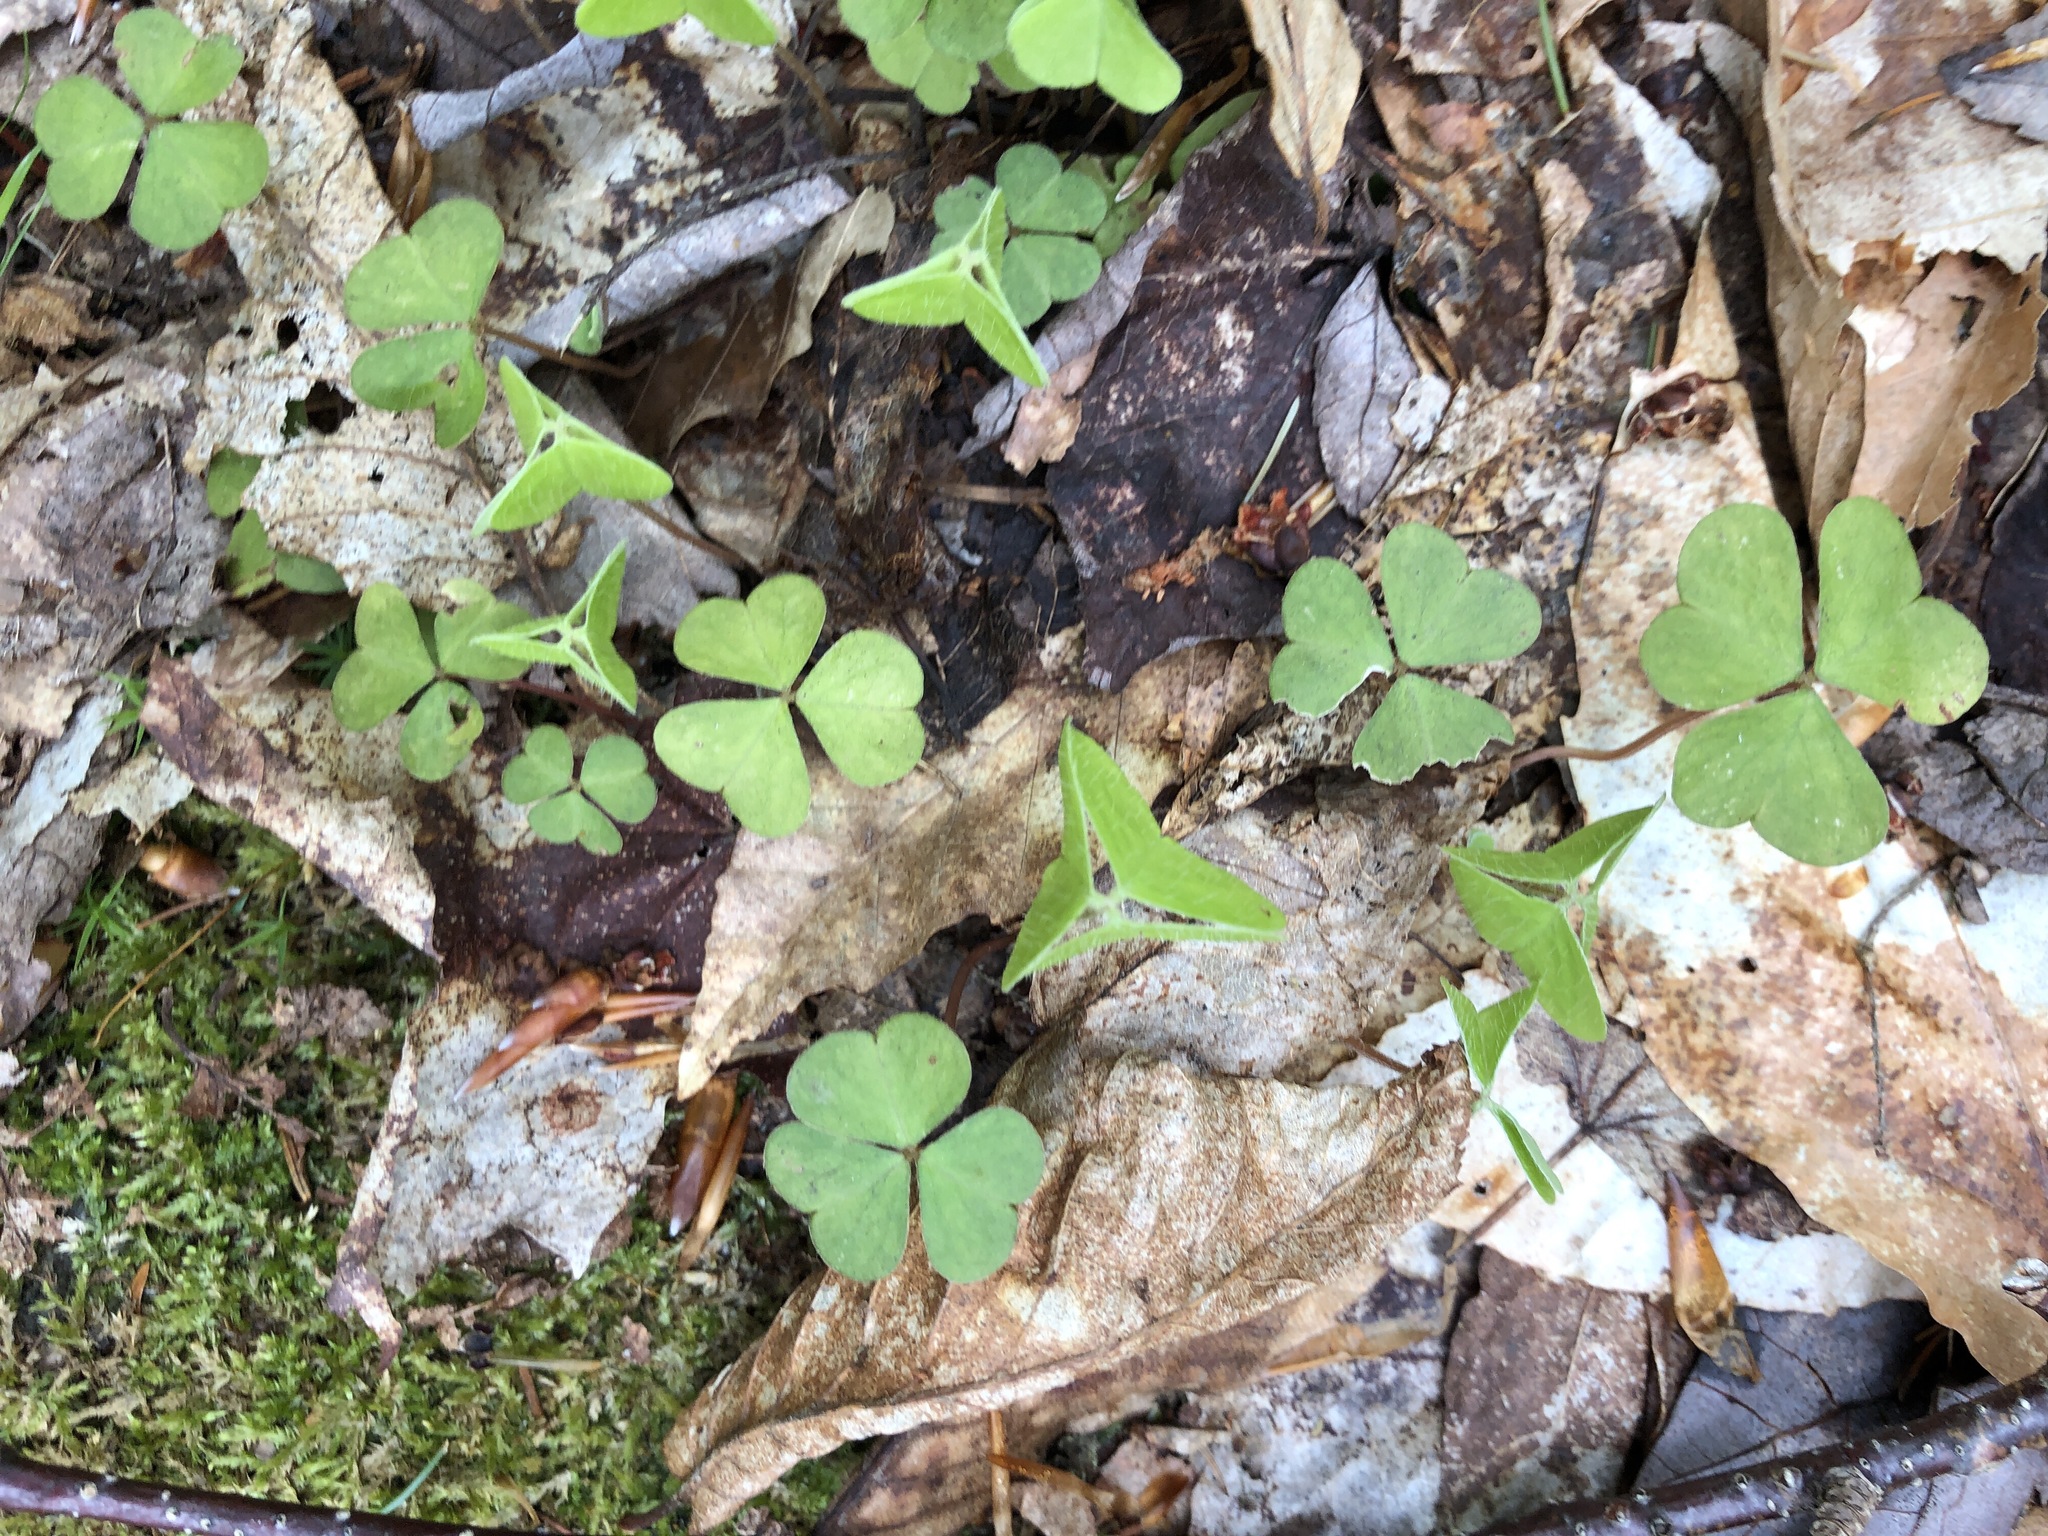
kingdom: Plantae
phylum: Tracheophyta
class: Magnoliopsida
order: Oxalidales
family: Oxalidaceae
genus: Oxalis
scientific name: Oxalis montana
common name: American wood-sorrel
